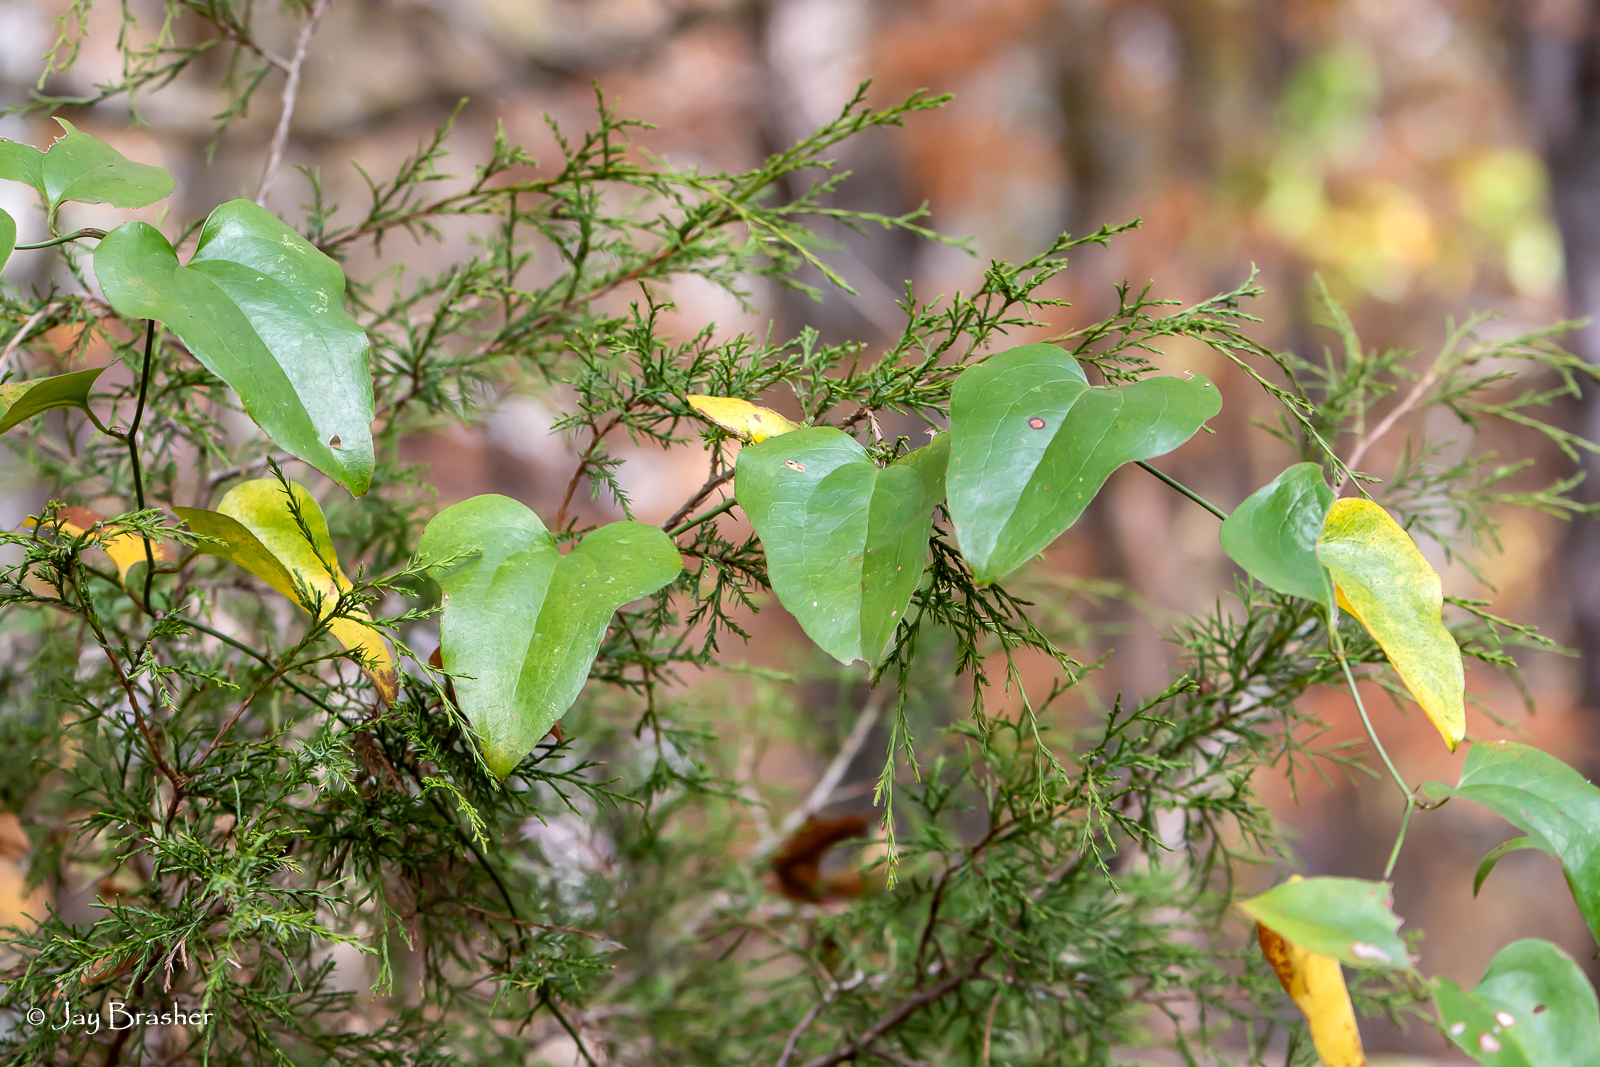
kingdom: Plantae
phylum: Tracheophyta
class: Liliopsida
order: Liliales
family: Smilacaceae
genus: Smilax
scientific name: Smilax bona-nox
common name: Catbrier
